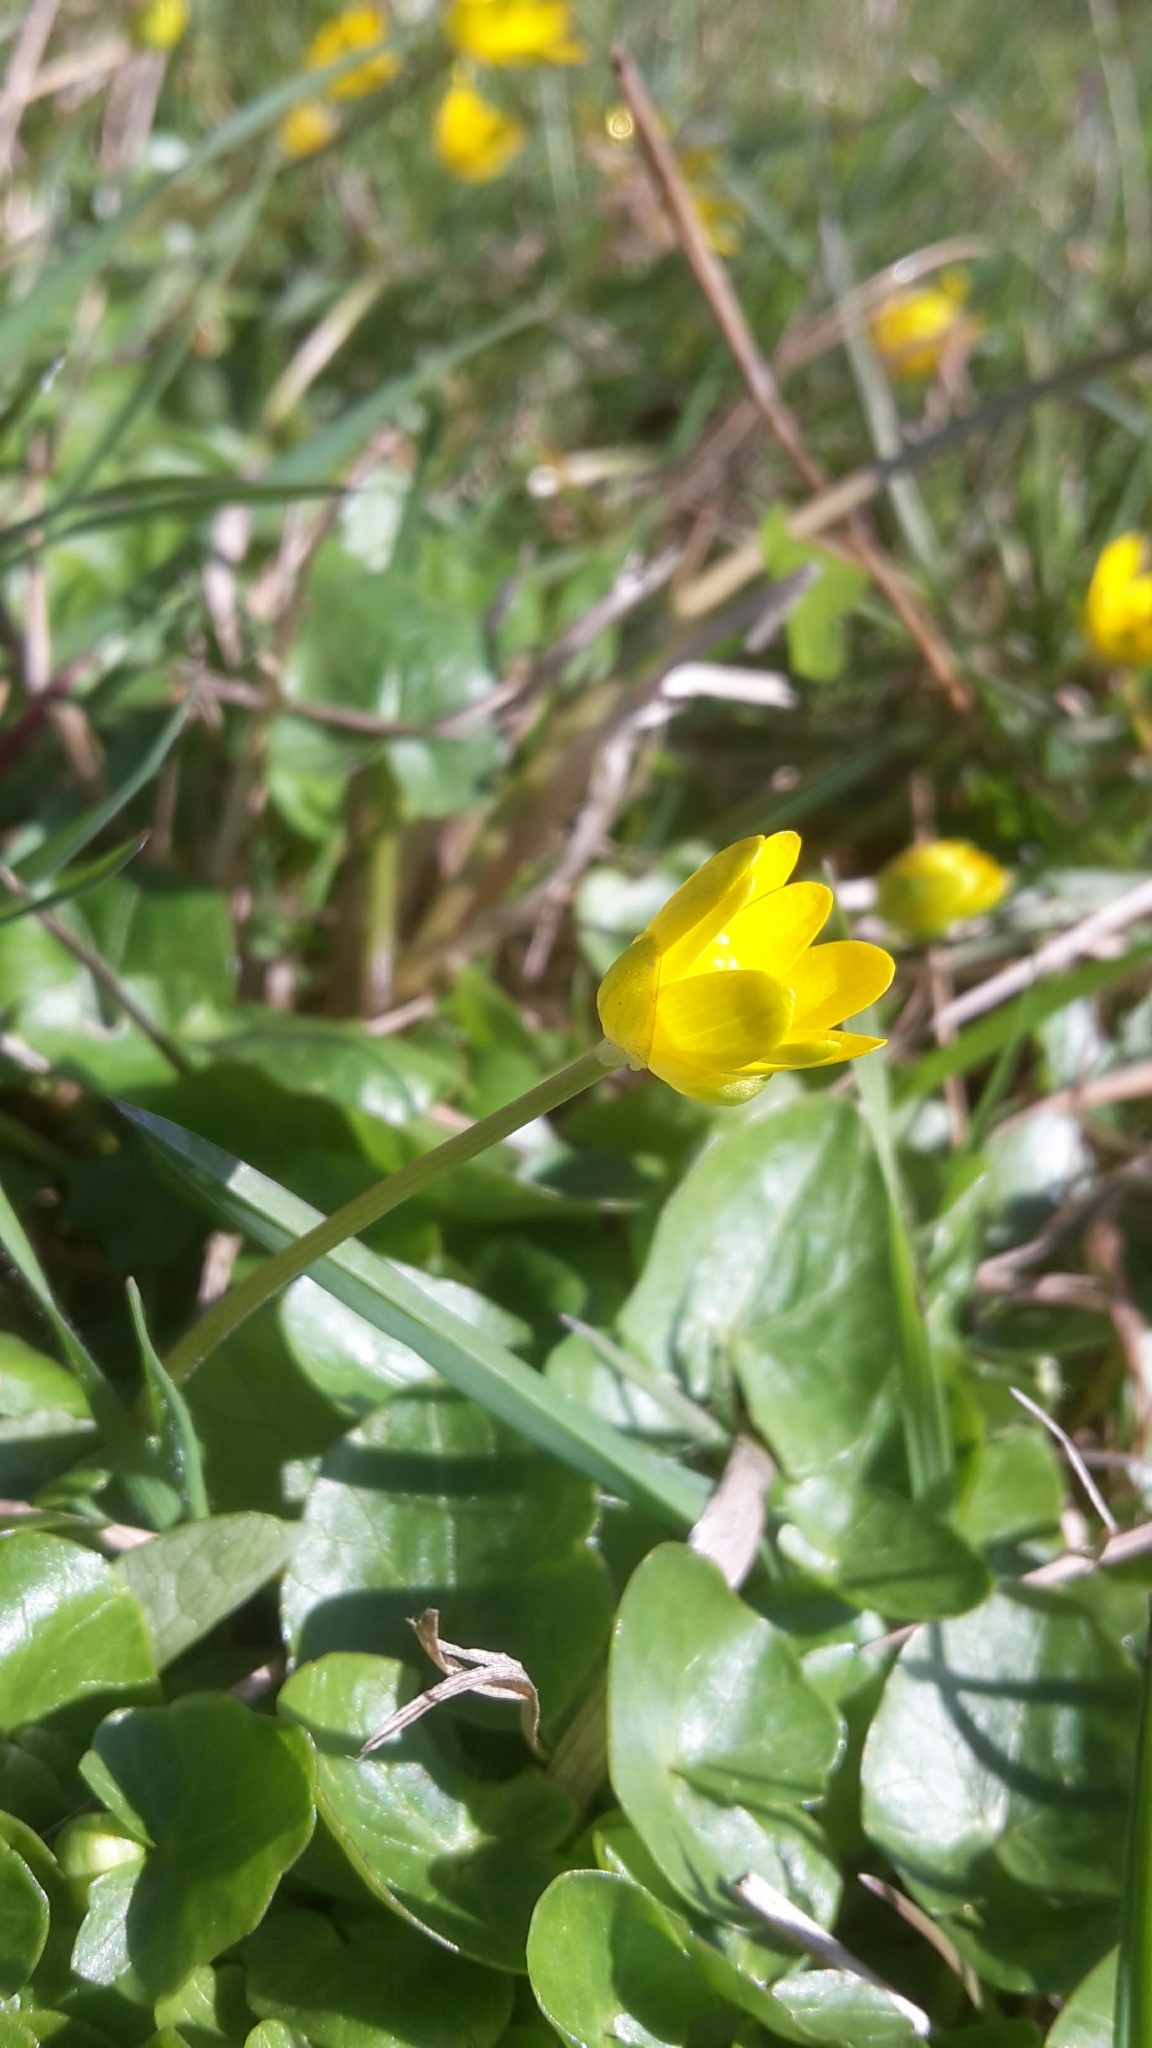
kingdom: Plantae
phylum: Tracheophyta
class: Magnoliopsida
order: Ranunculales
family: Ranunculaceae
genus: Ficaria
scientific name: Ficaria verna
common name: Lesser celandine
